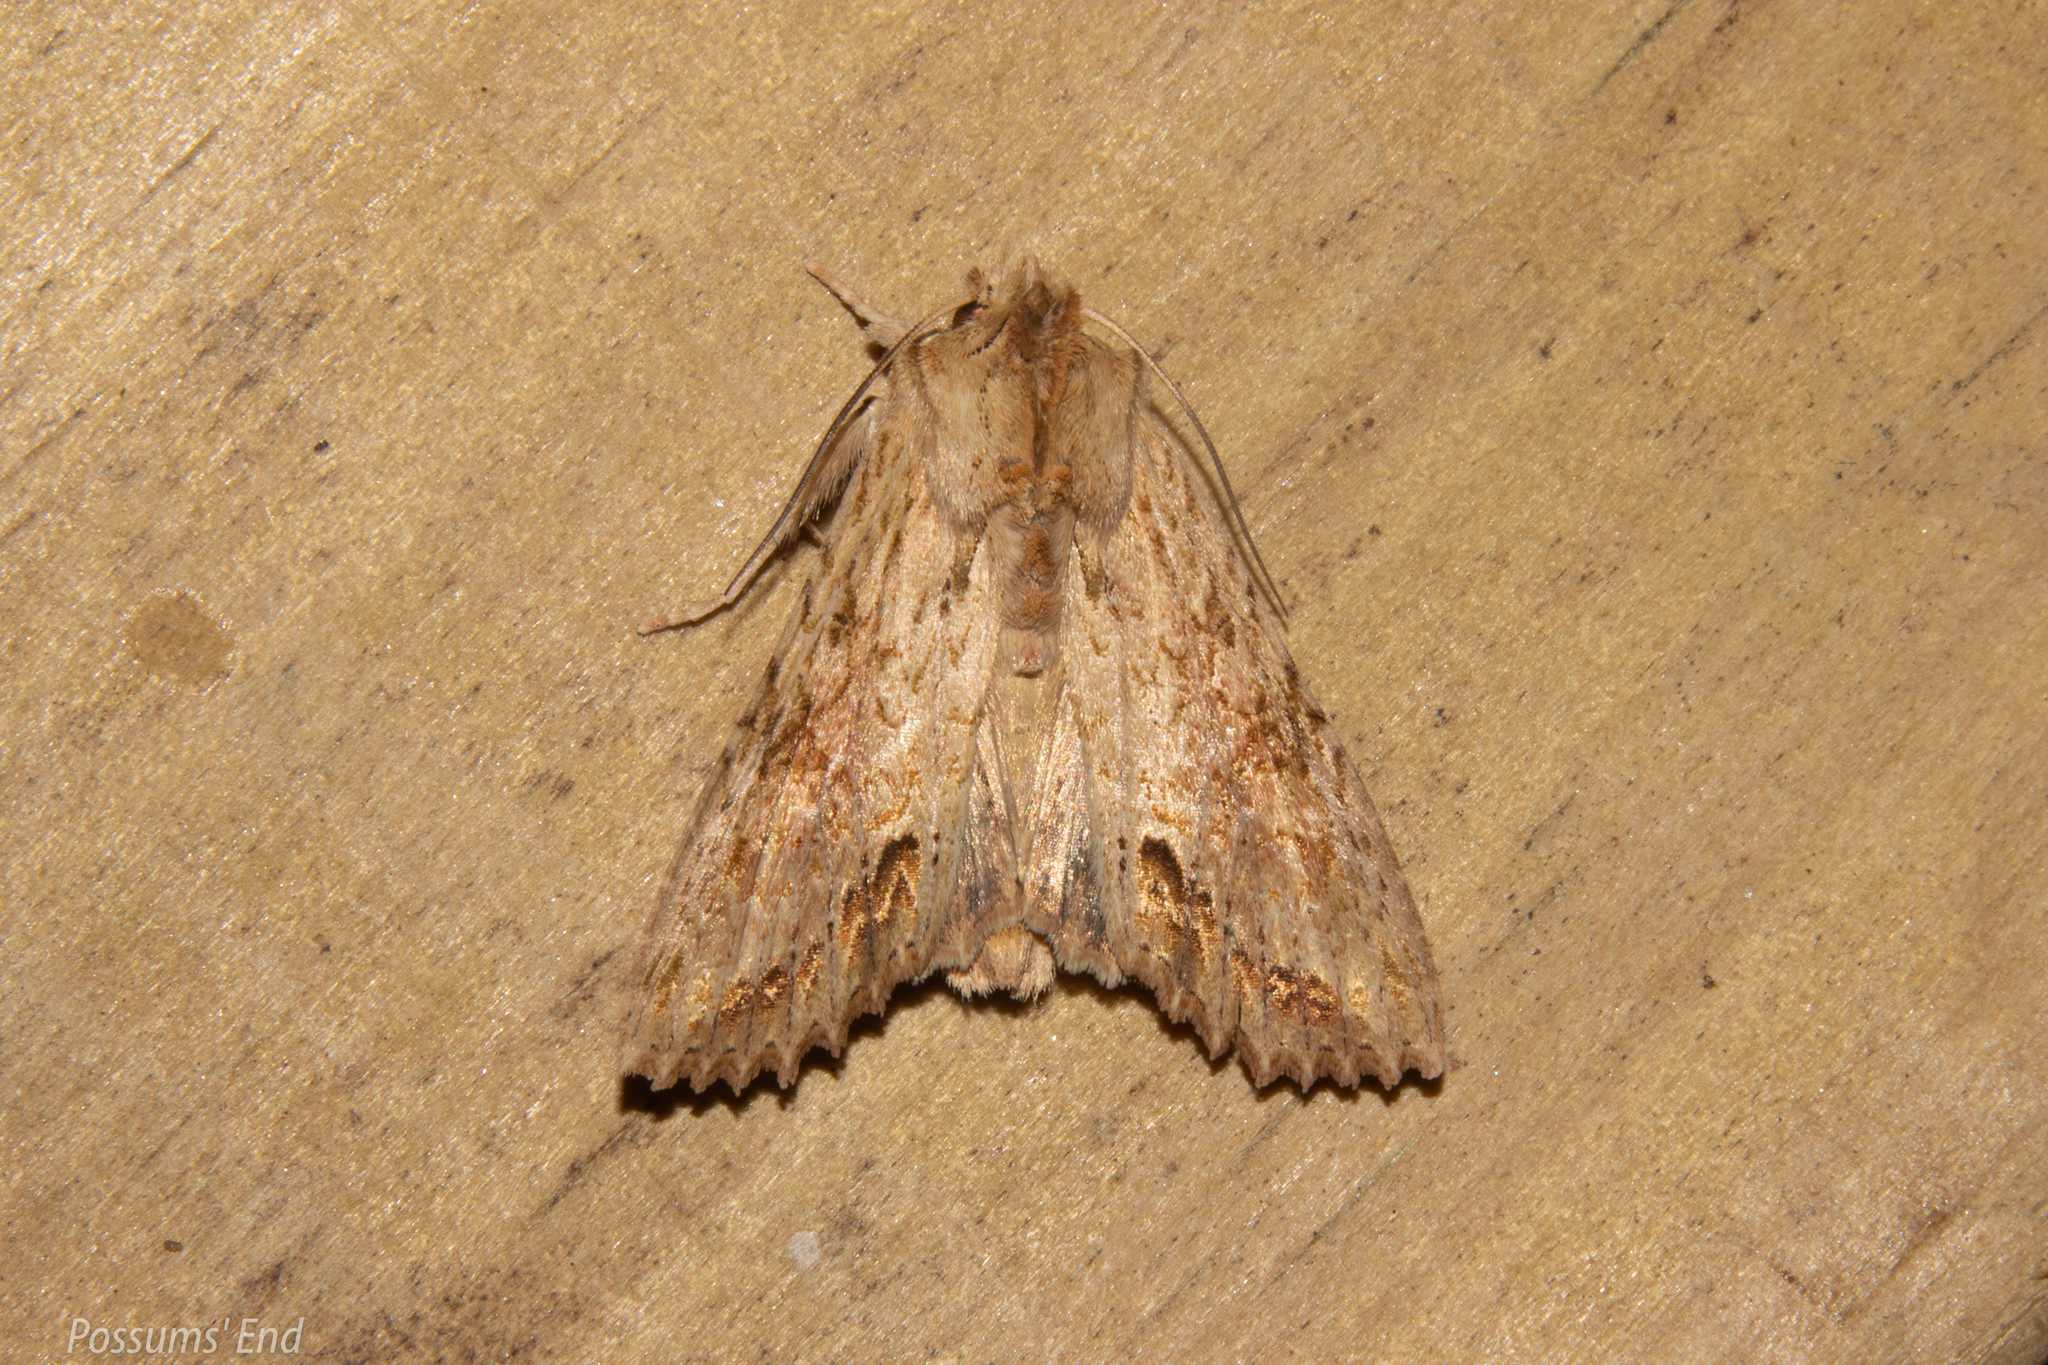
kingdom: Animalia
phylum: Arthropoda
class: Insecta
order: Lepidoptera
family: Noctuidae
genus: Ichneutica
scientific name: Ichneutica mollis
